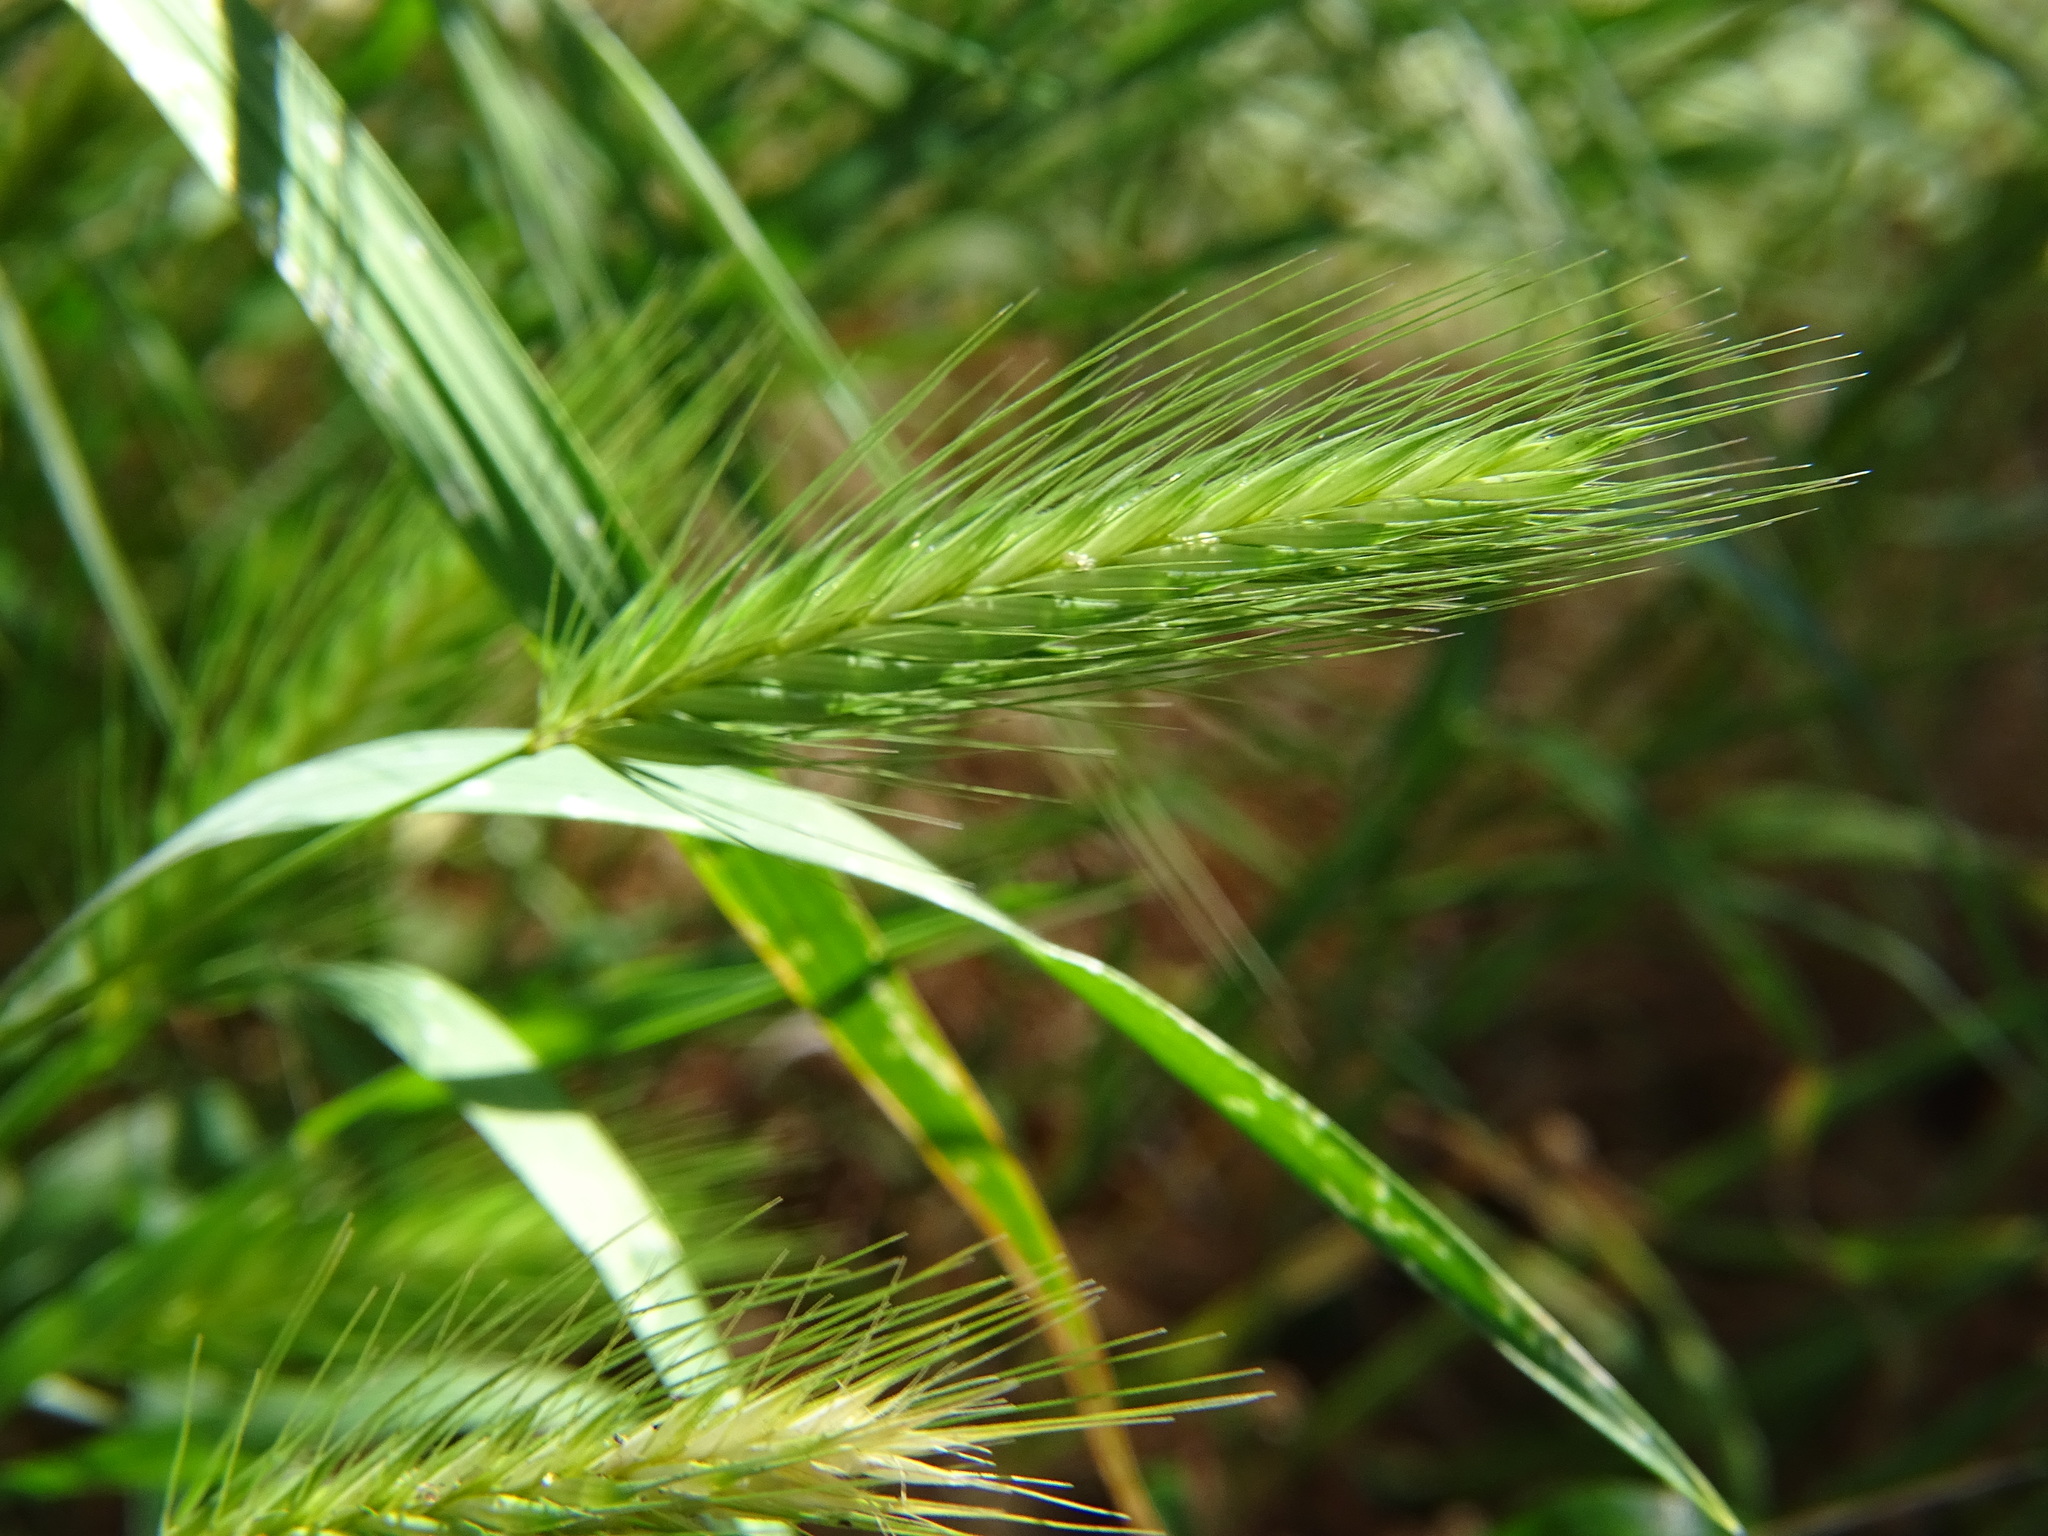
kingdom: Plantae
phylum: Tracheophyta
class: Liliopsida
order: Poales
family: Poaceae
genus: Hordeum
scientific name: Hordeum murinum
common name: Wall barley
